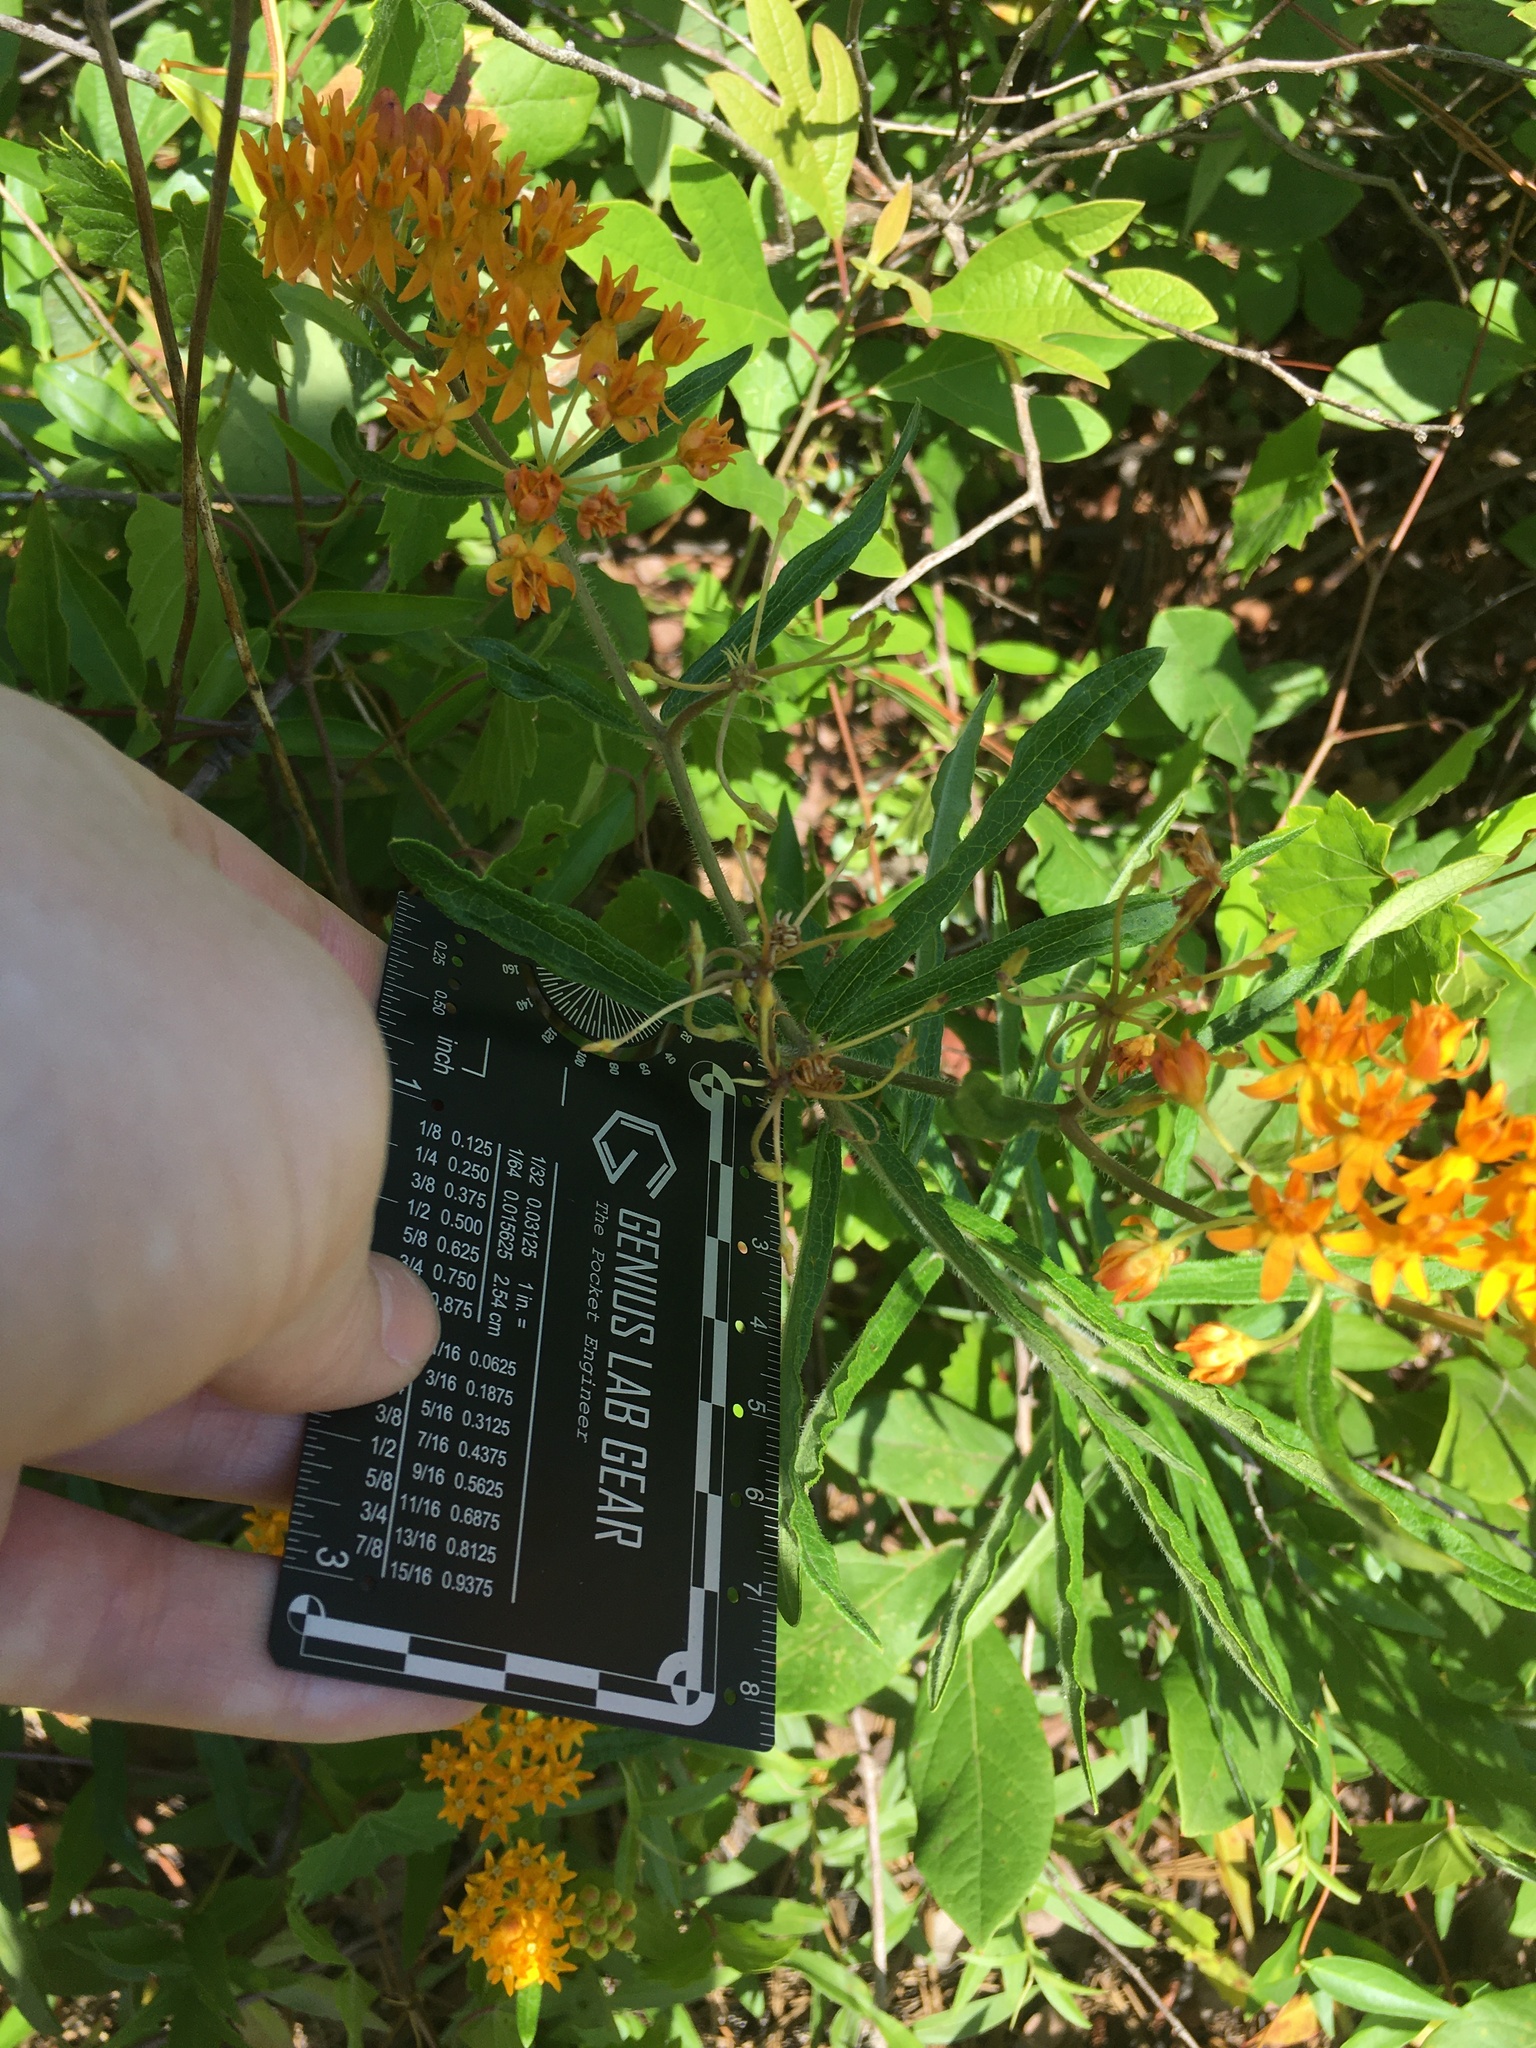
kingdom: Plantae
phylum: Tracheophyta
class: Magnoliopsida
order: Gentianales
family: Apocynaceae
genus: Asclepias
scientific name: Asclepias tuberosa
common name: Butterfly milkweed
